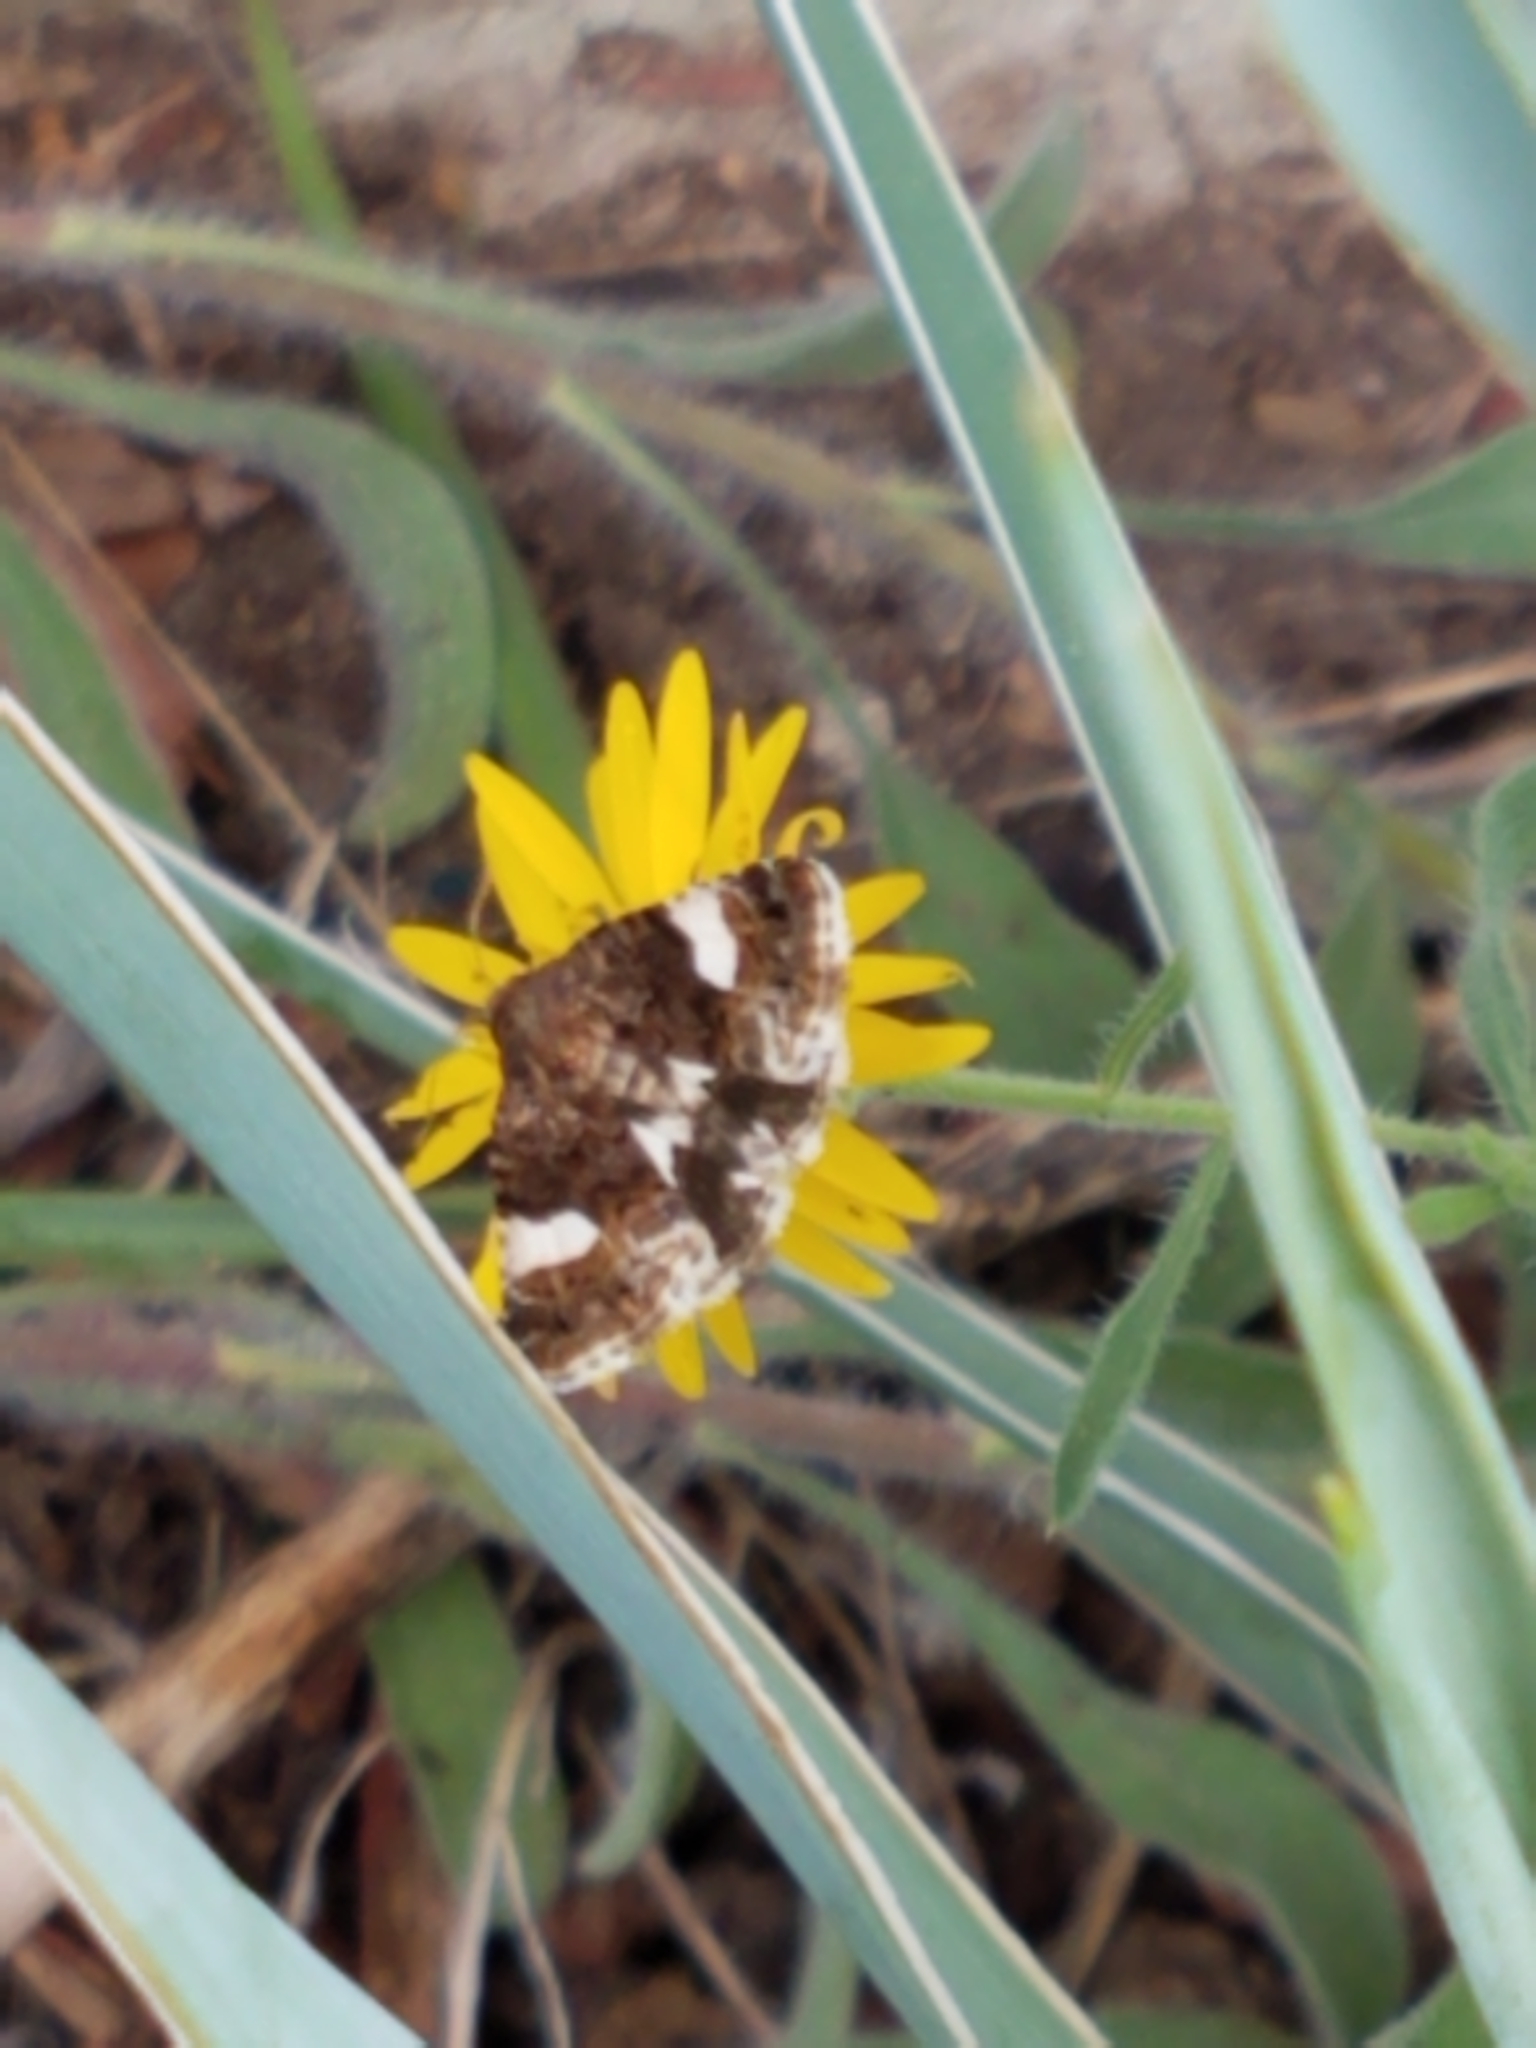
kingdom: Animalia
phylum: Arthropoda
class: Insecta
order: Lepidoptera
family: Erebidae
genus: Tyta
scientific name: Tyta luctuosa
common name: Four-spotted
